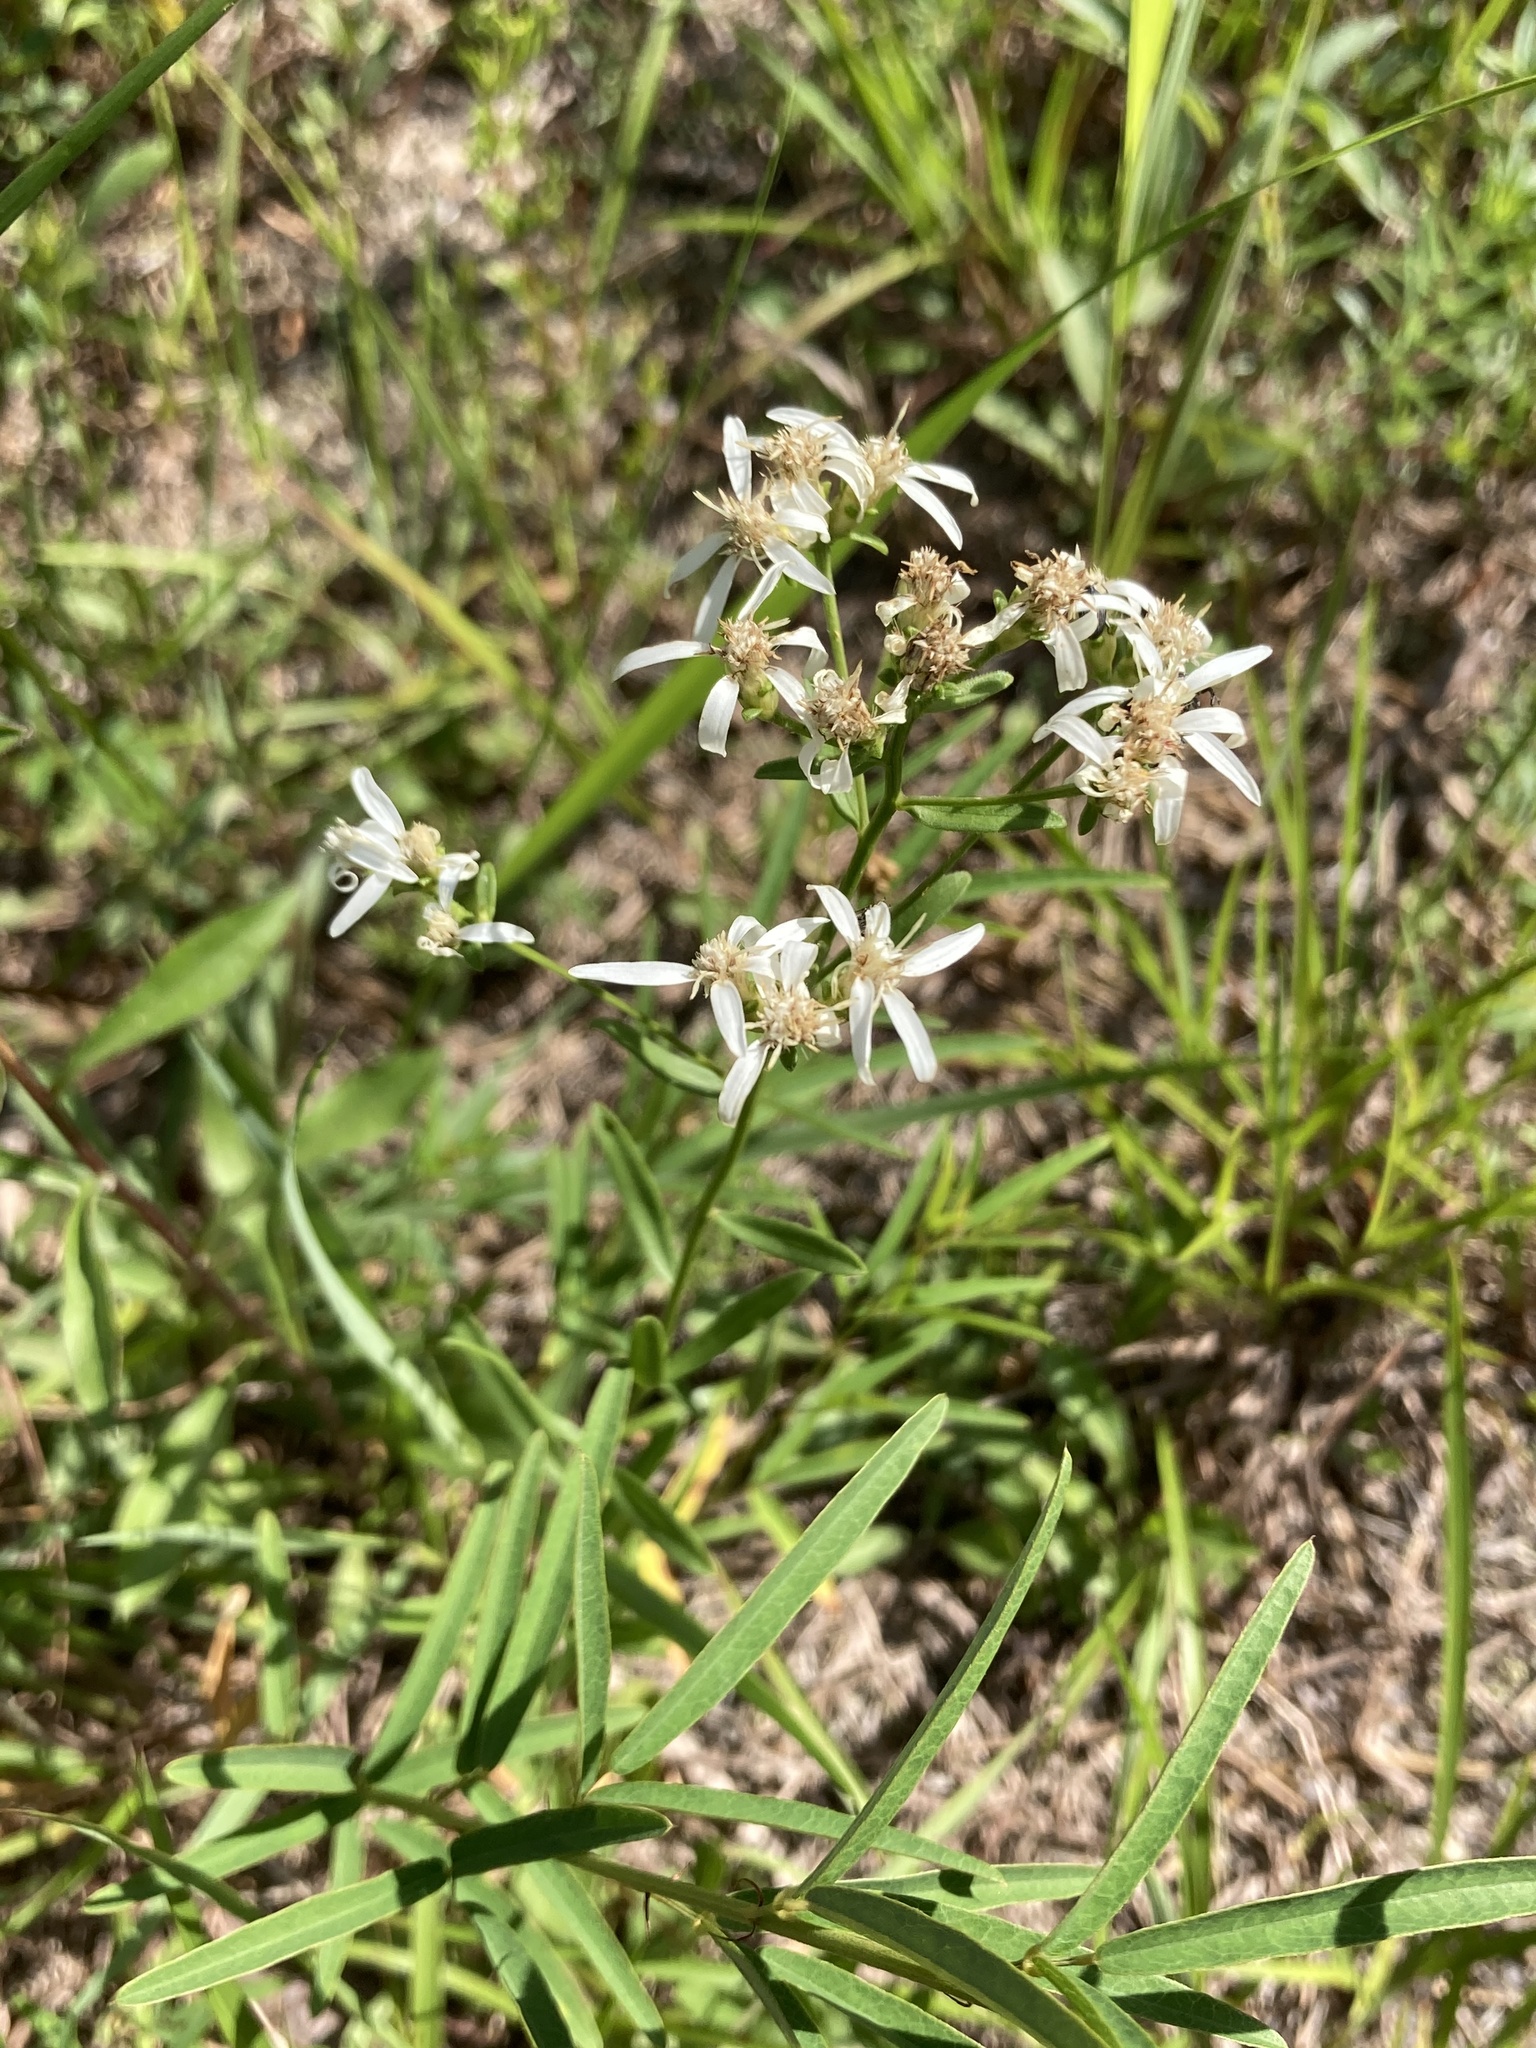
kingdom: Plantae
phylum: Tracheophyta
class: Magnoliopsida
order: Asterales
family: Asteraceae
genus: Sericocarpus
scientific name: Sericocarpus linifolius
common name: Narrow-leaf aster
